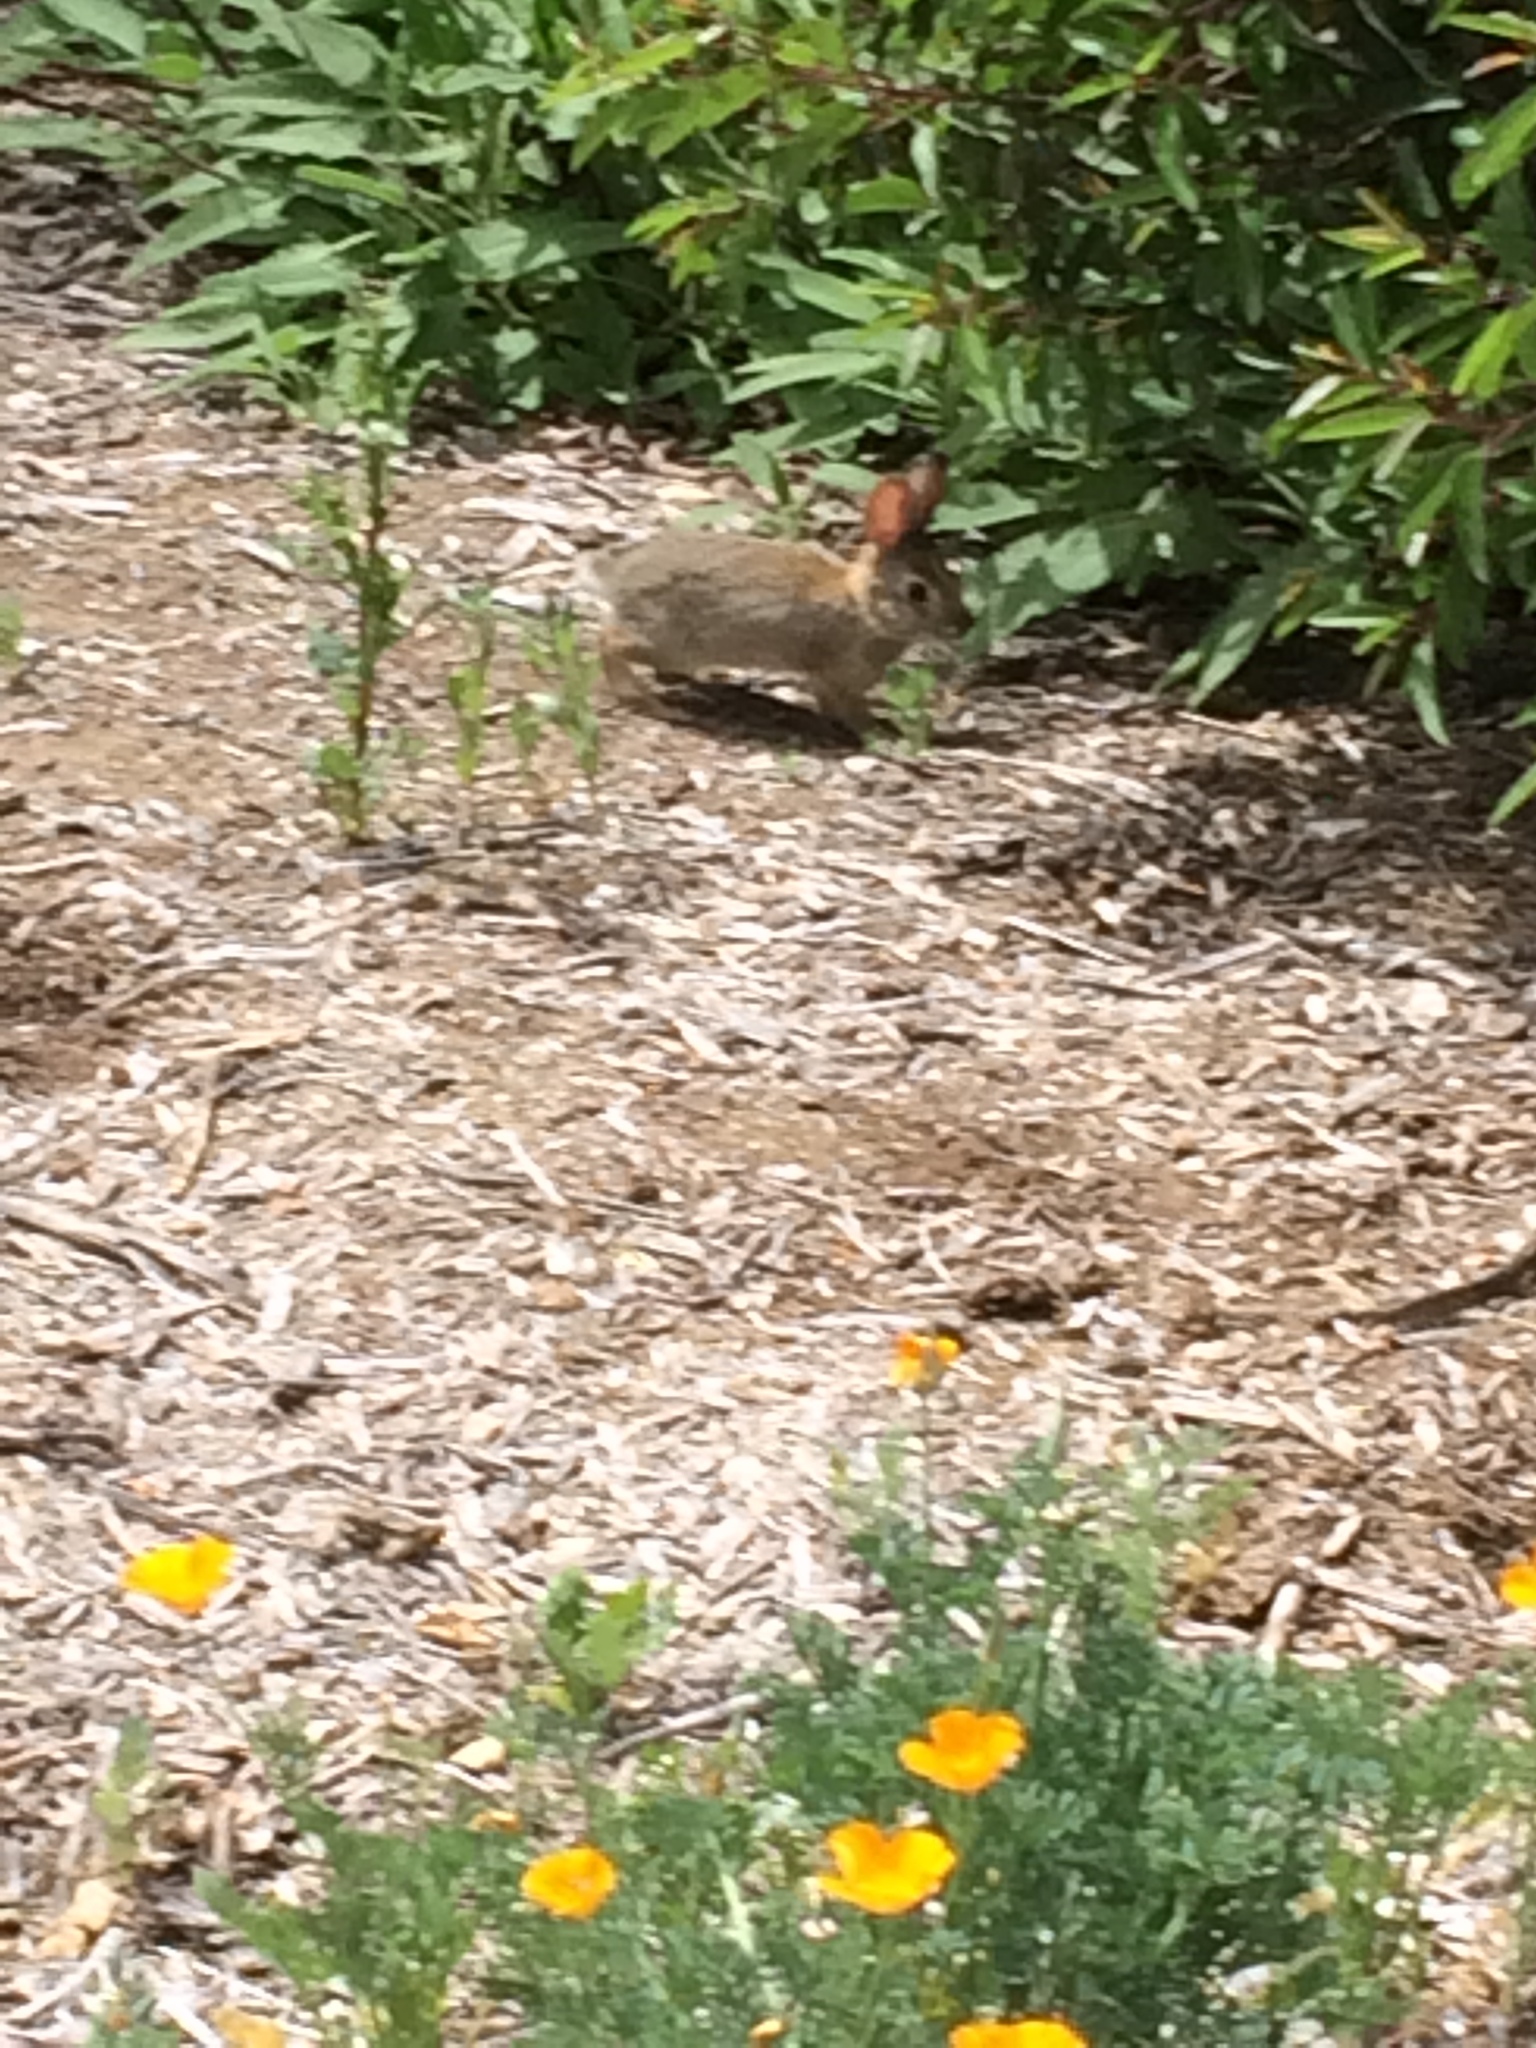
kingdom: Animalia
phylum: Chordata
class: Mammalia
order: Lagomorpha
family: Leporidae
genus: Sylvilagus
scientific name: Sylvilagus audubonii
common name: Desert cottontail
